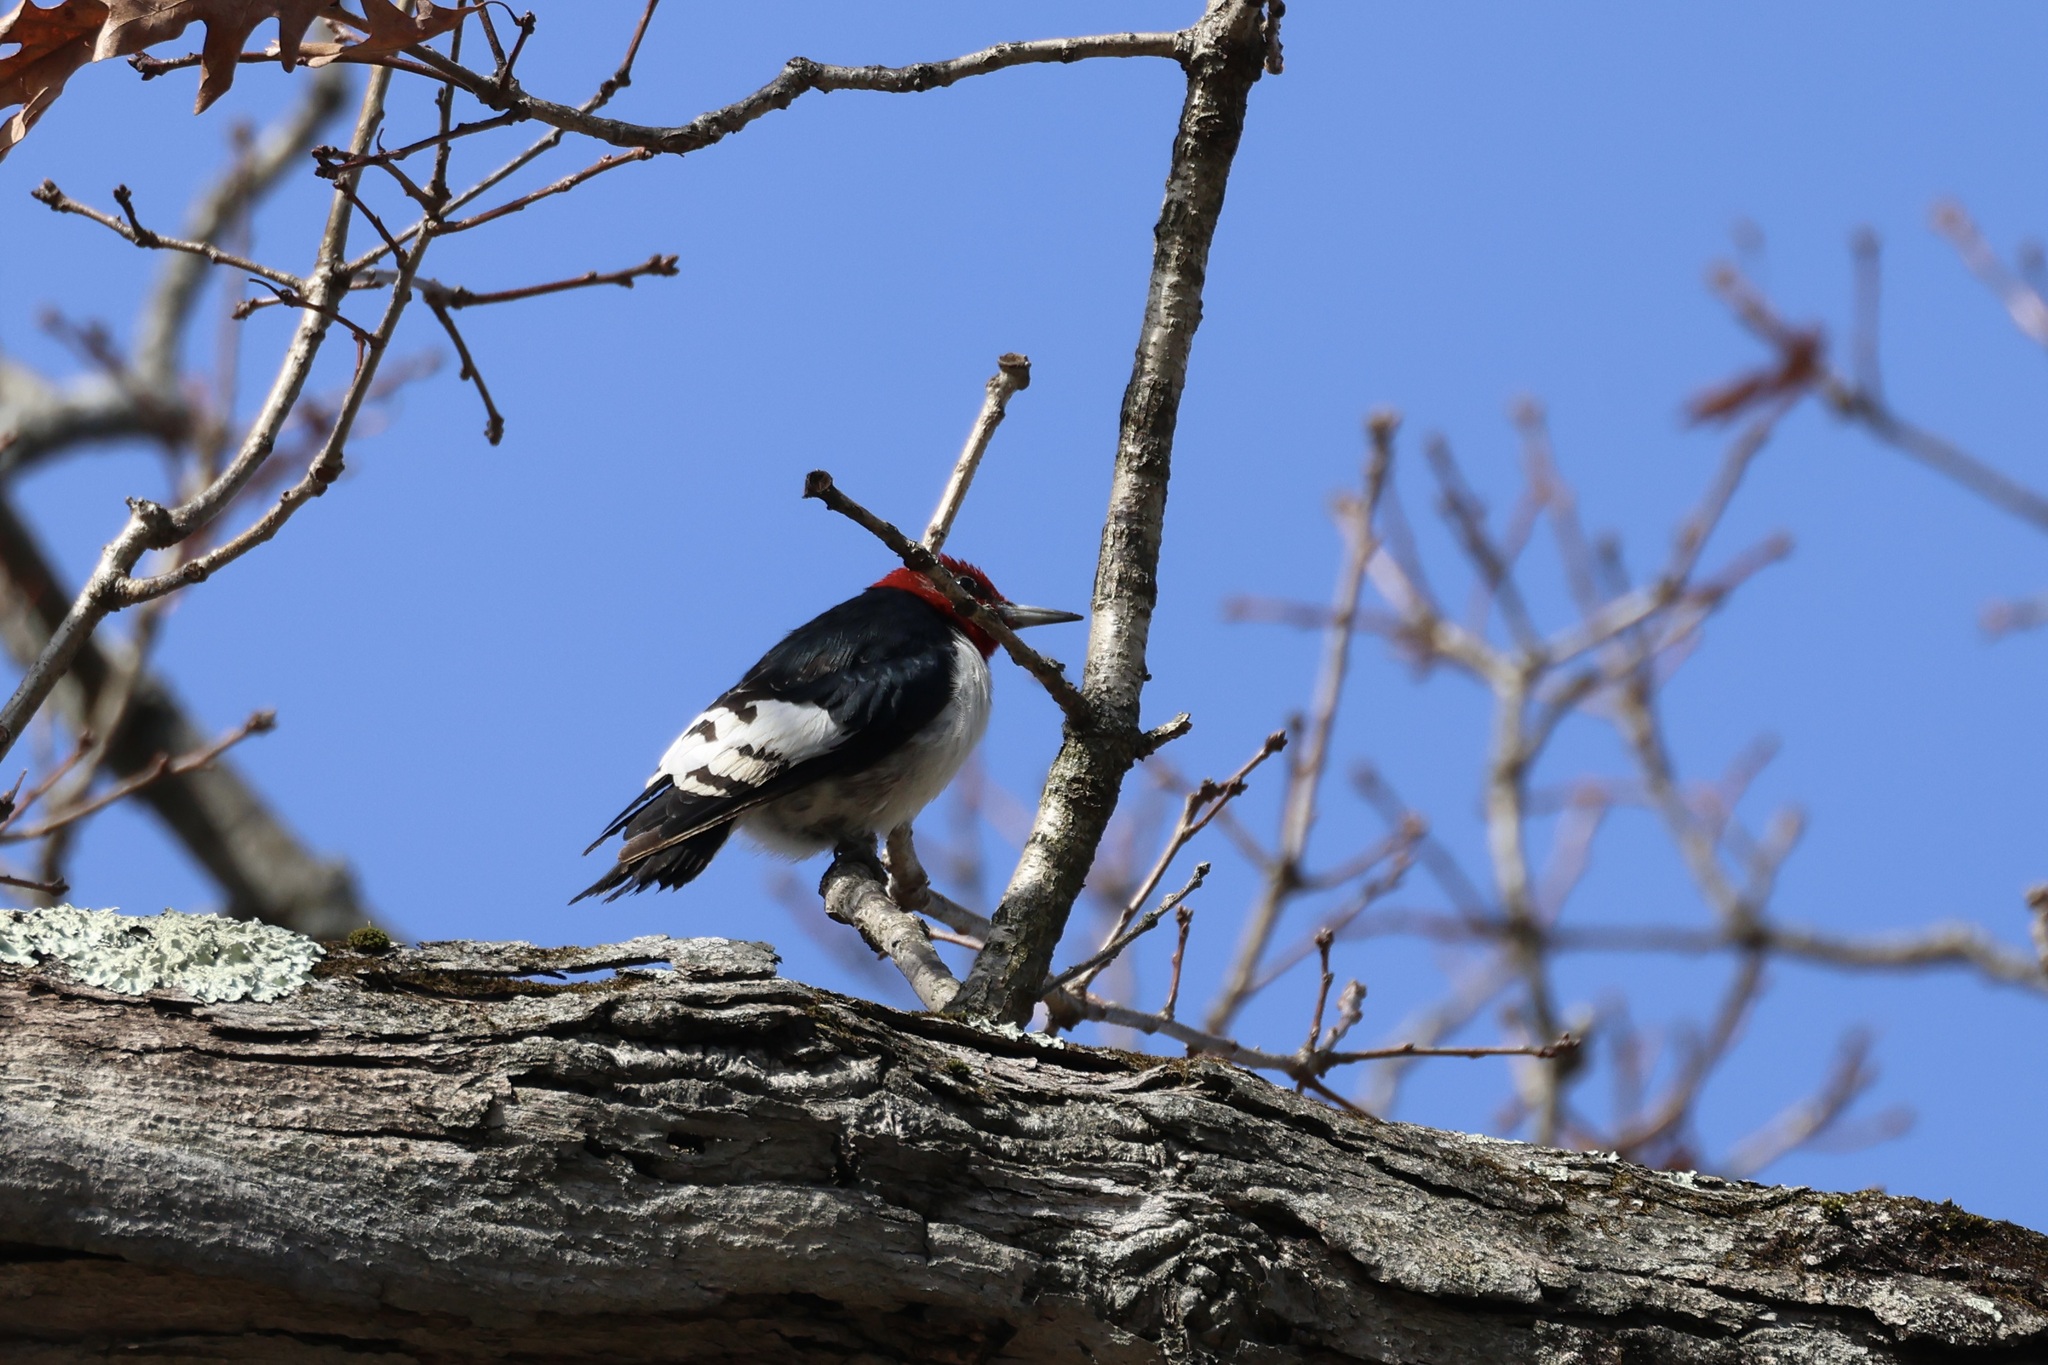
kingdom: Animalia
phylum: Chordata
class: Aves
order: Piciformes
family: Picidae
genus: Melanerpes
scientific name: Melanerpes erythrocephalus
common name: Red-headed woodpecker
